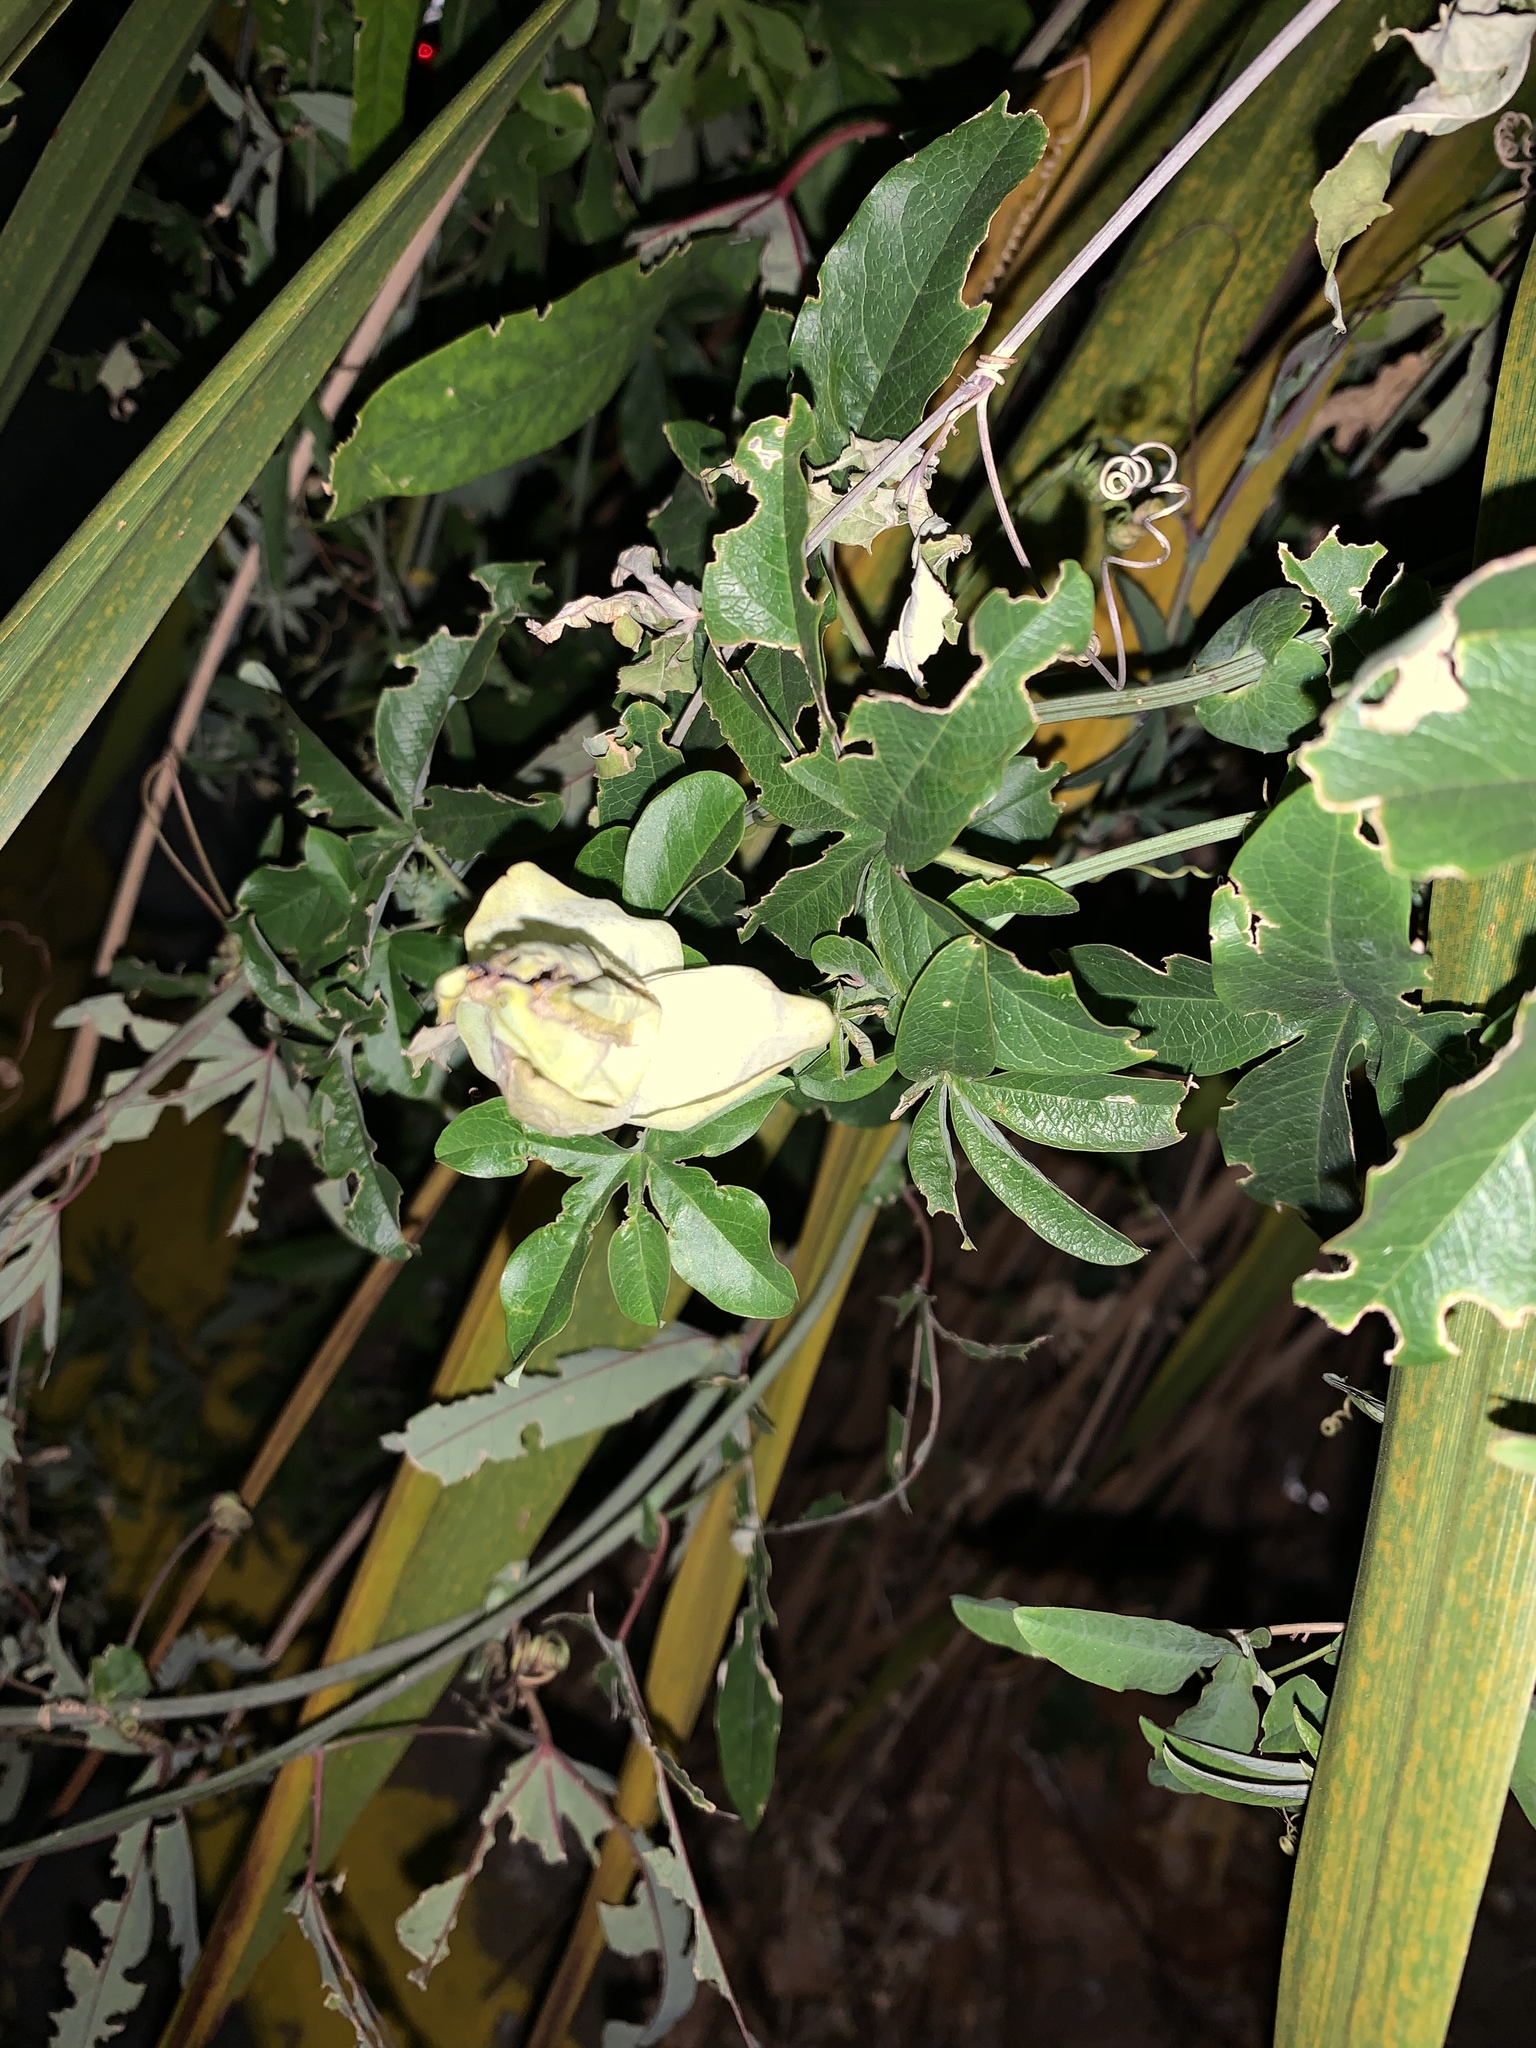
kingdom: Plantae
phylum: Tracheophyta
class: Magnoliopsida
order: Malpighiales
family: Passifloraceae
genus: Passiflora
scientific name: Passiflora caerulea
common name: Blue passionflower
